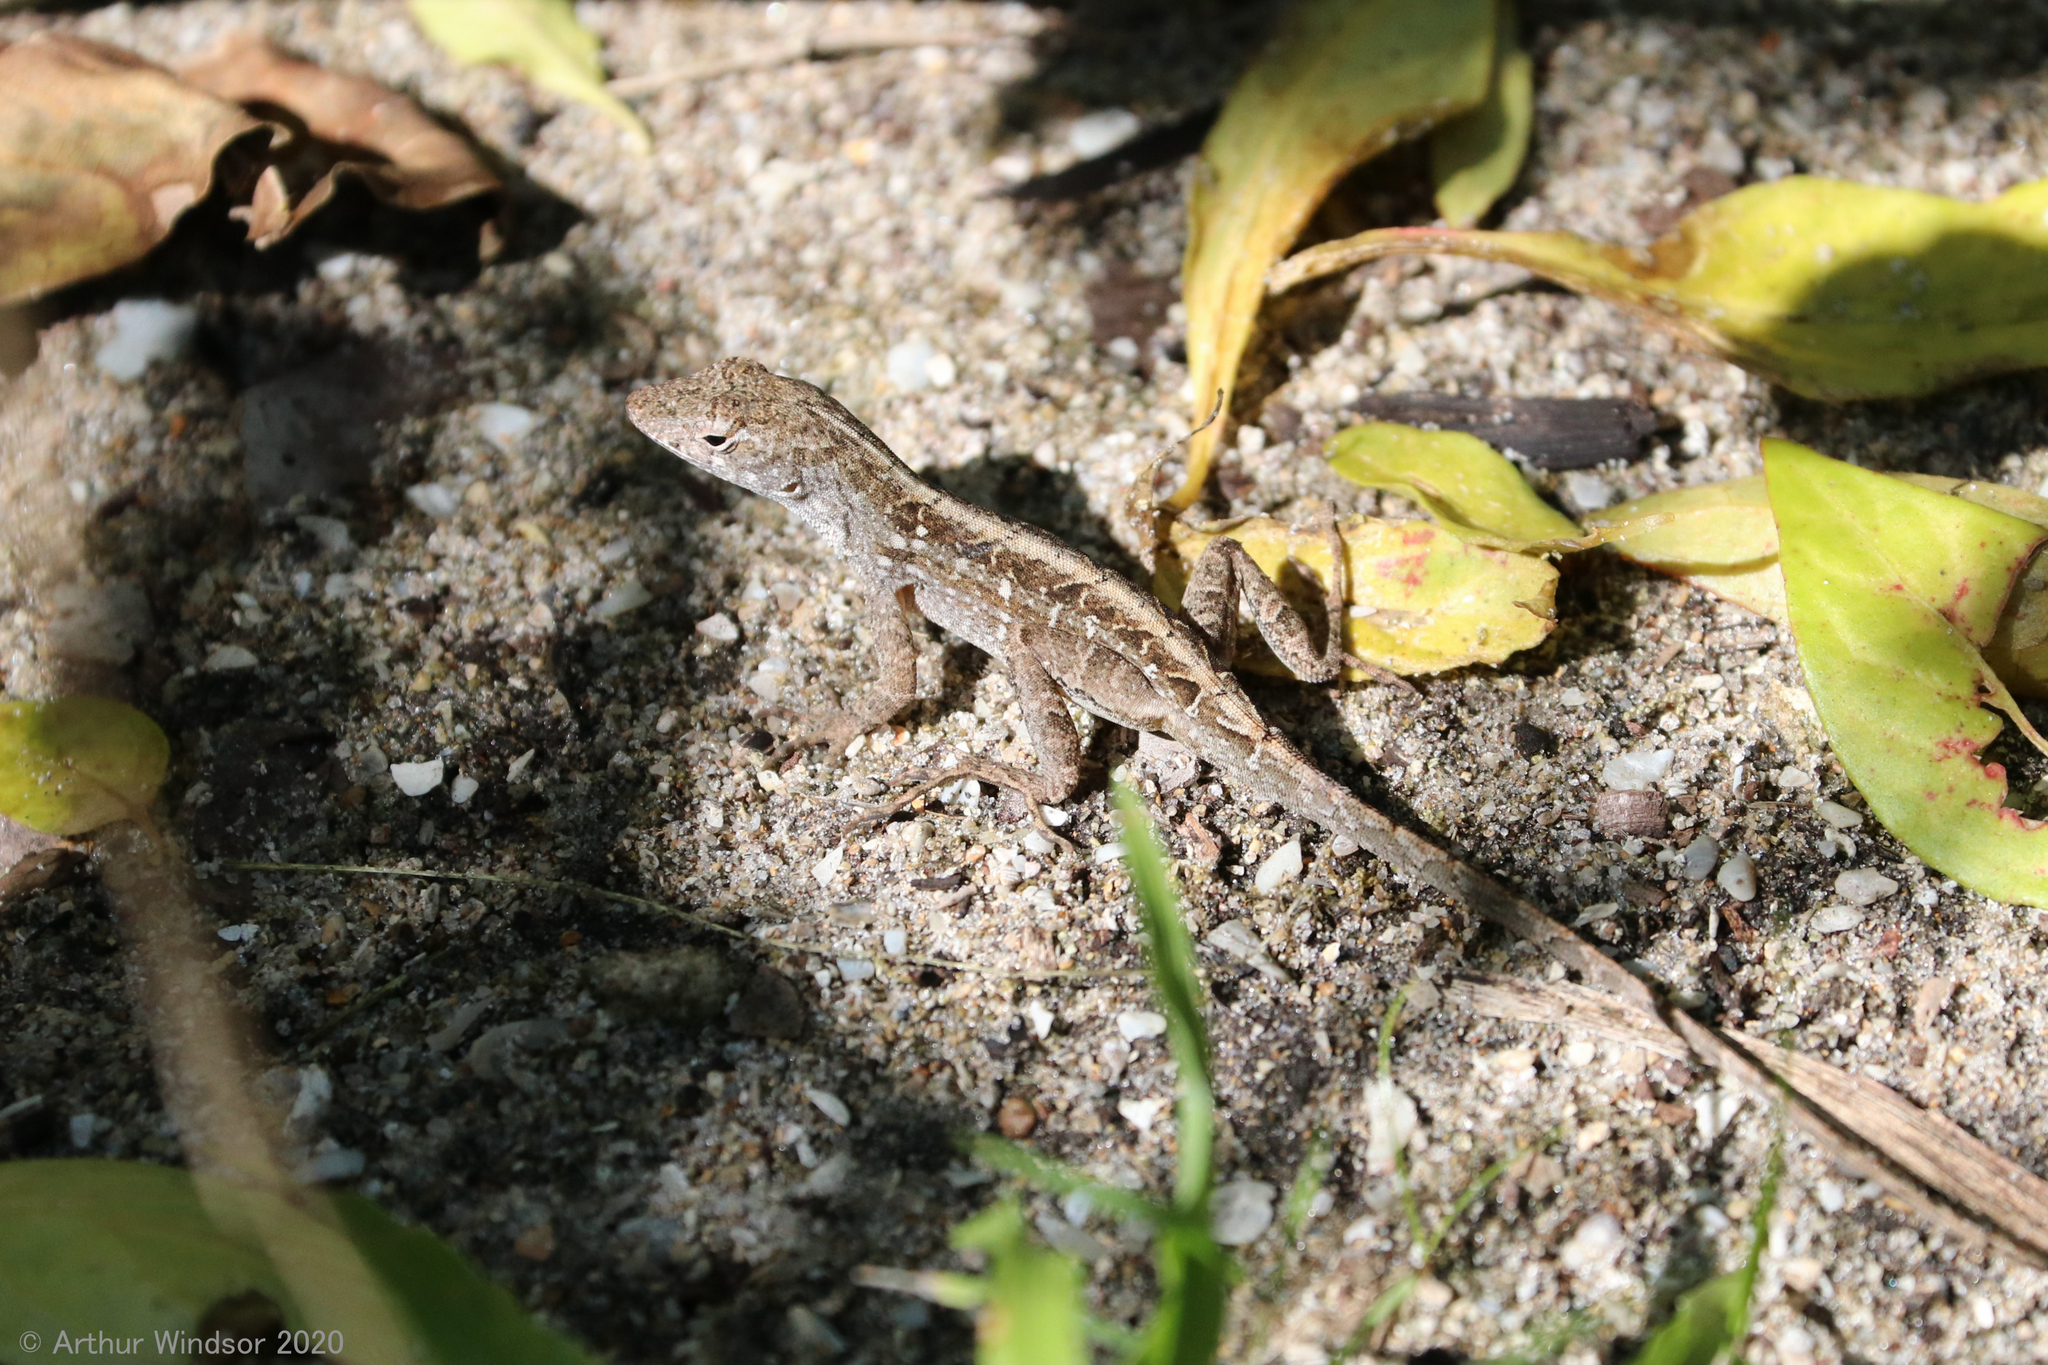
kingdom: Animalia
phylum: Chordata
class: Squamata
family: Dactyloidae
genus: Anolis
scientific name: Anolis sagrei
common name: Brown anole
